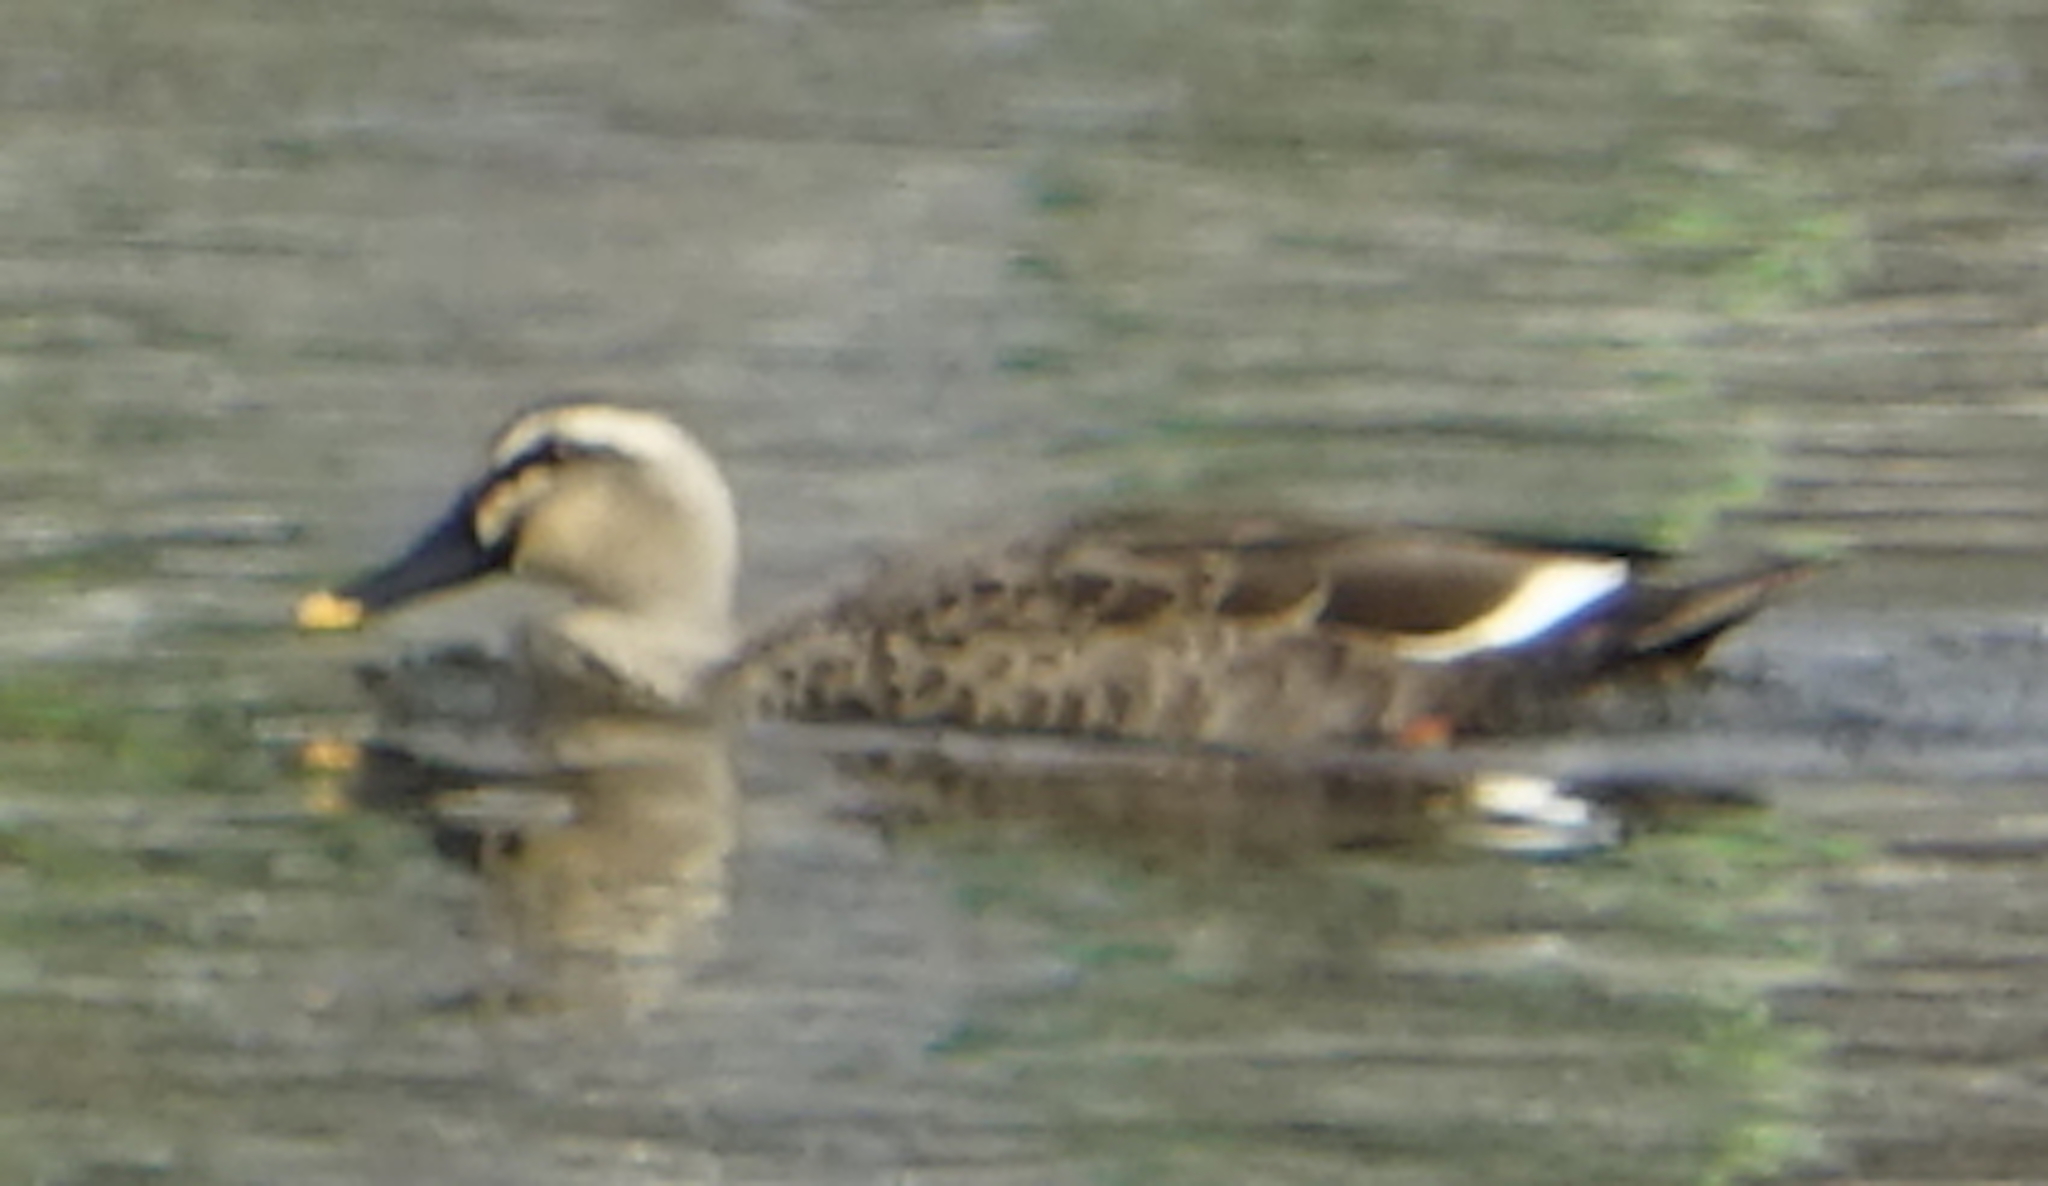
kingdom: Animalia
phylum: Chordata
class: Aves
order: Anseriformes
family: Anatidae
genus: Anas
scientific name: Anas zonorhyncha
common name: Eastern spot-billed duck
